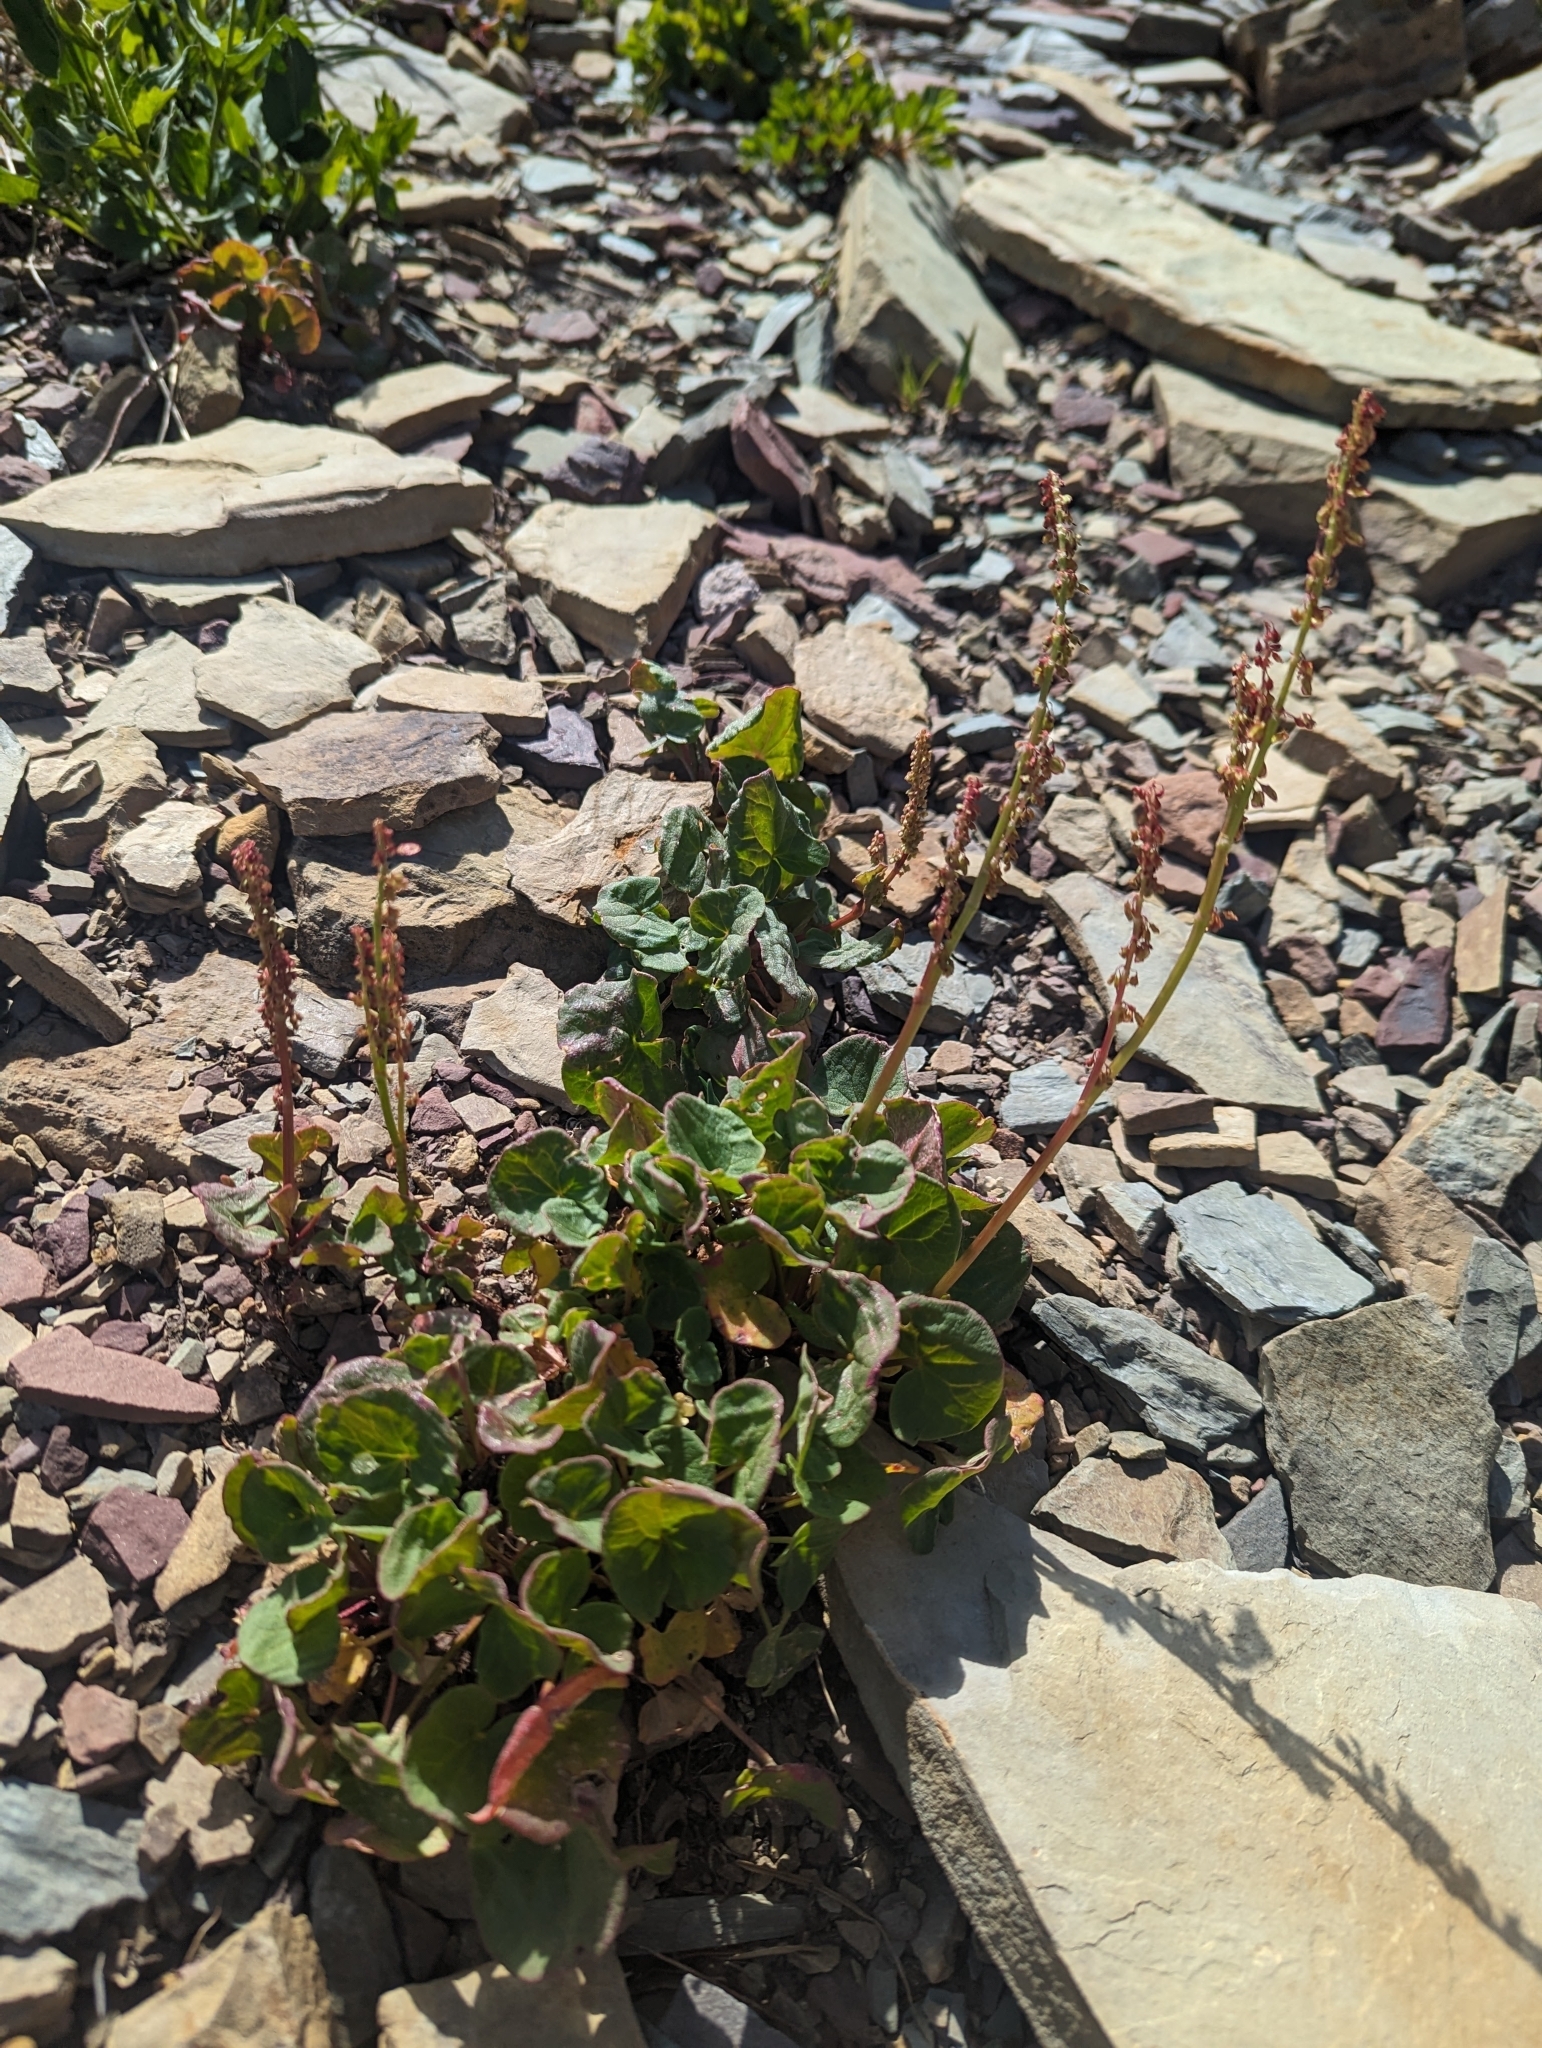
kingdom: Plantae
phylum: Tracheophyta
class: Magnoliopsida
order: Caryophyllales
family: Polygonaceae
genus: Oxyria
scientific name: Oxyria digyna
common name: Alpine mountain-sorrel
